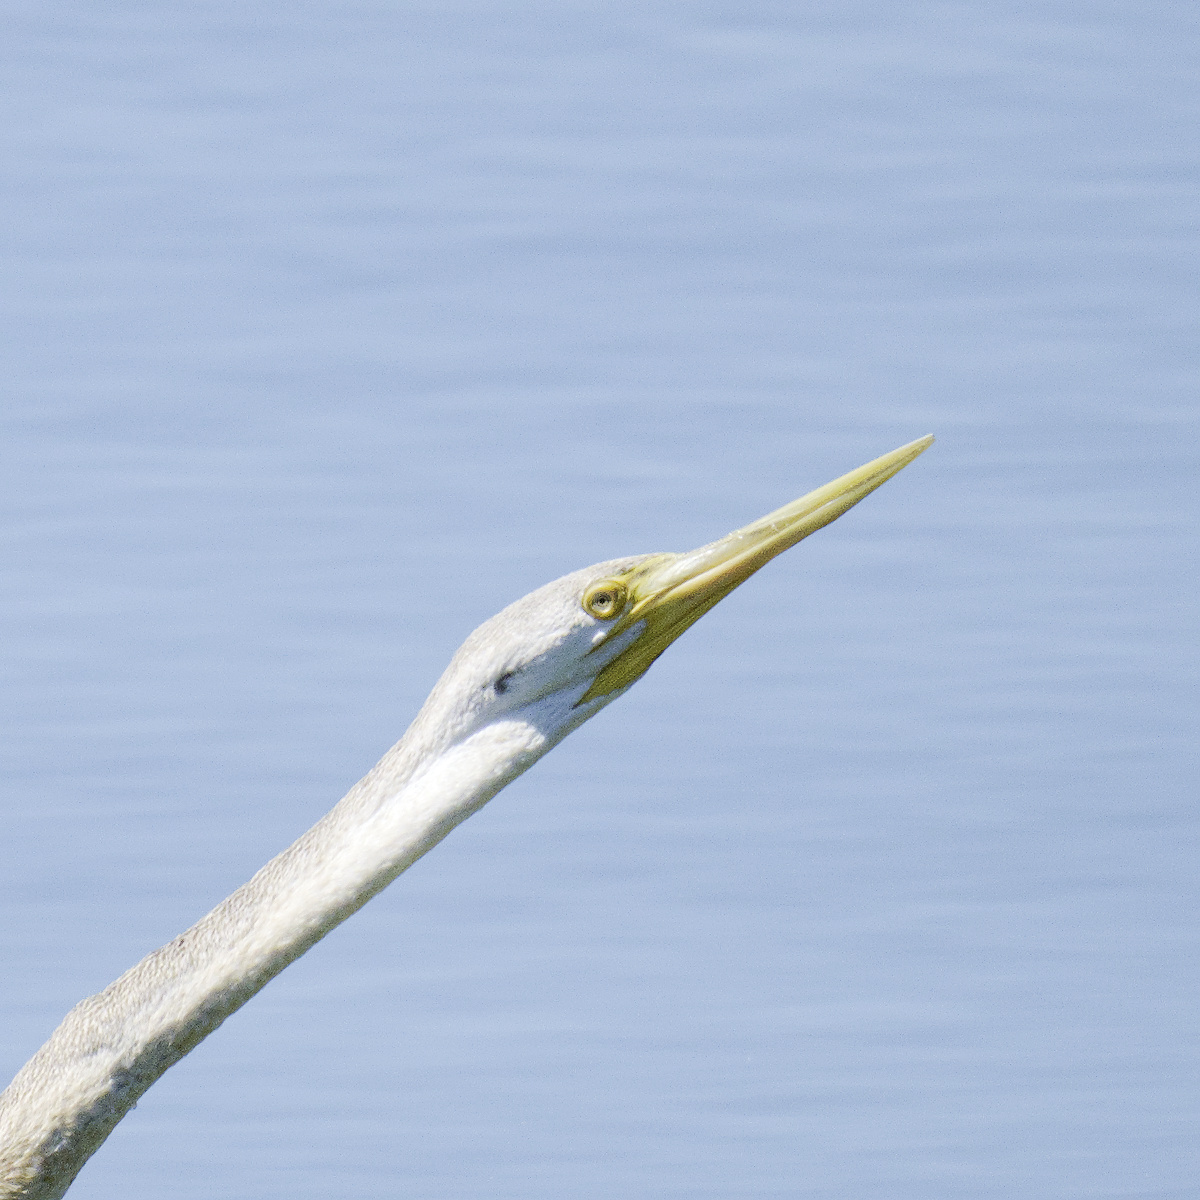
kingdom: Animalia
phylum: Chordata
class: Aves
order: Suliformes
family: Anhingidae
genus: Anhinga
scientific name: Anhinga novaehollandiae
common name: Australasian darter
